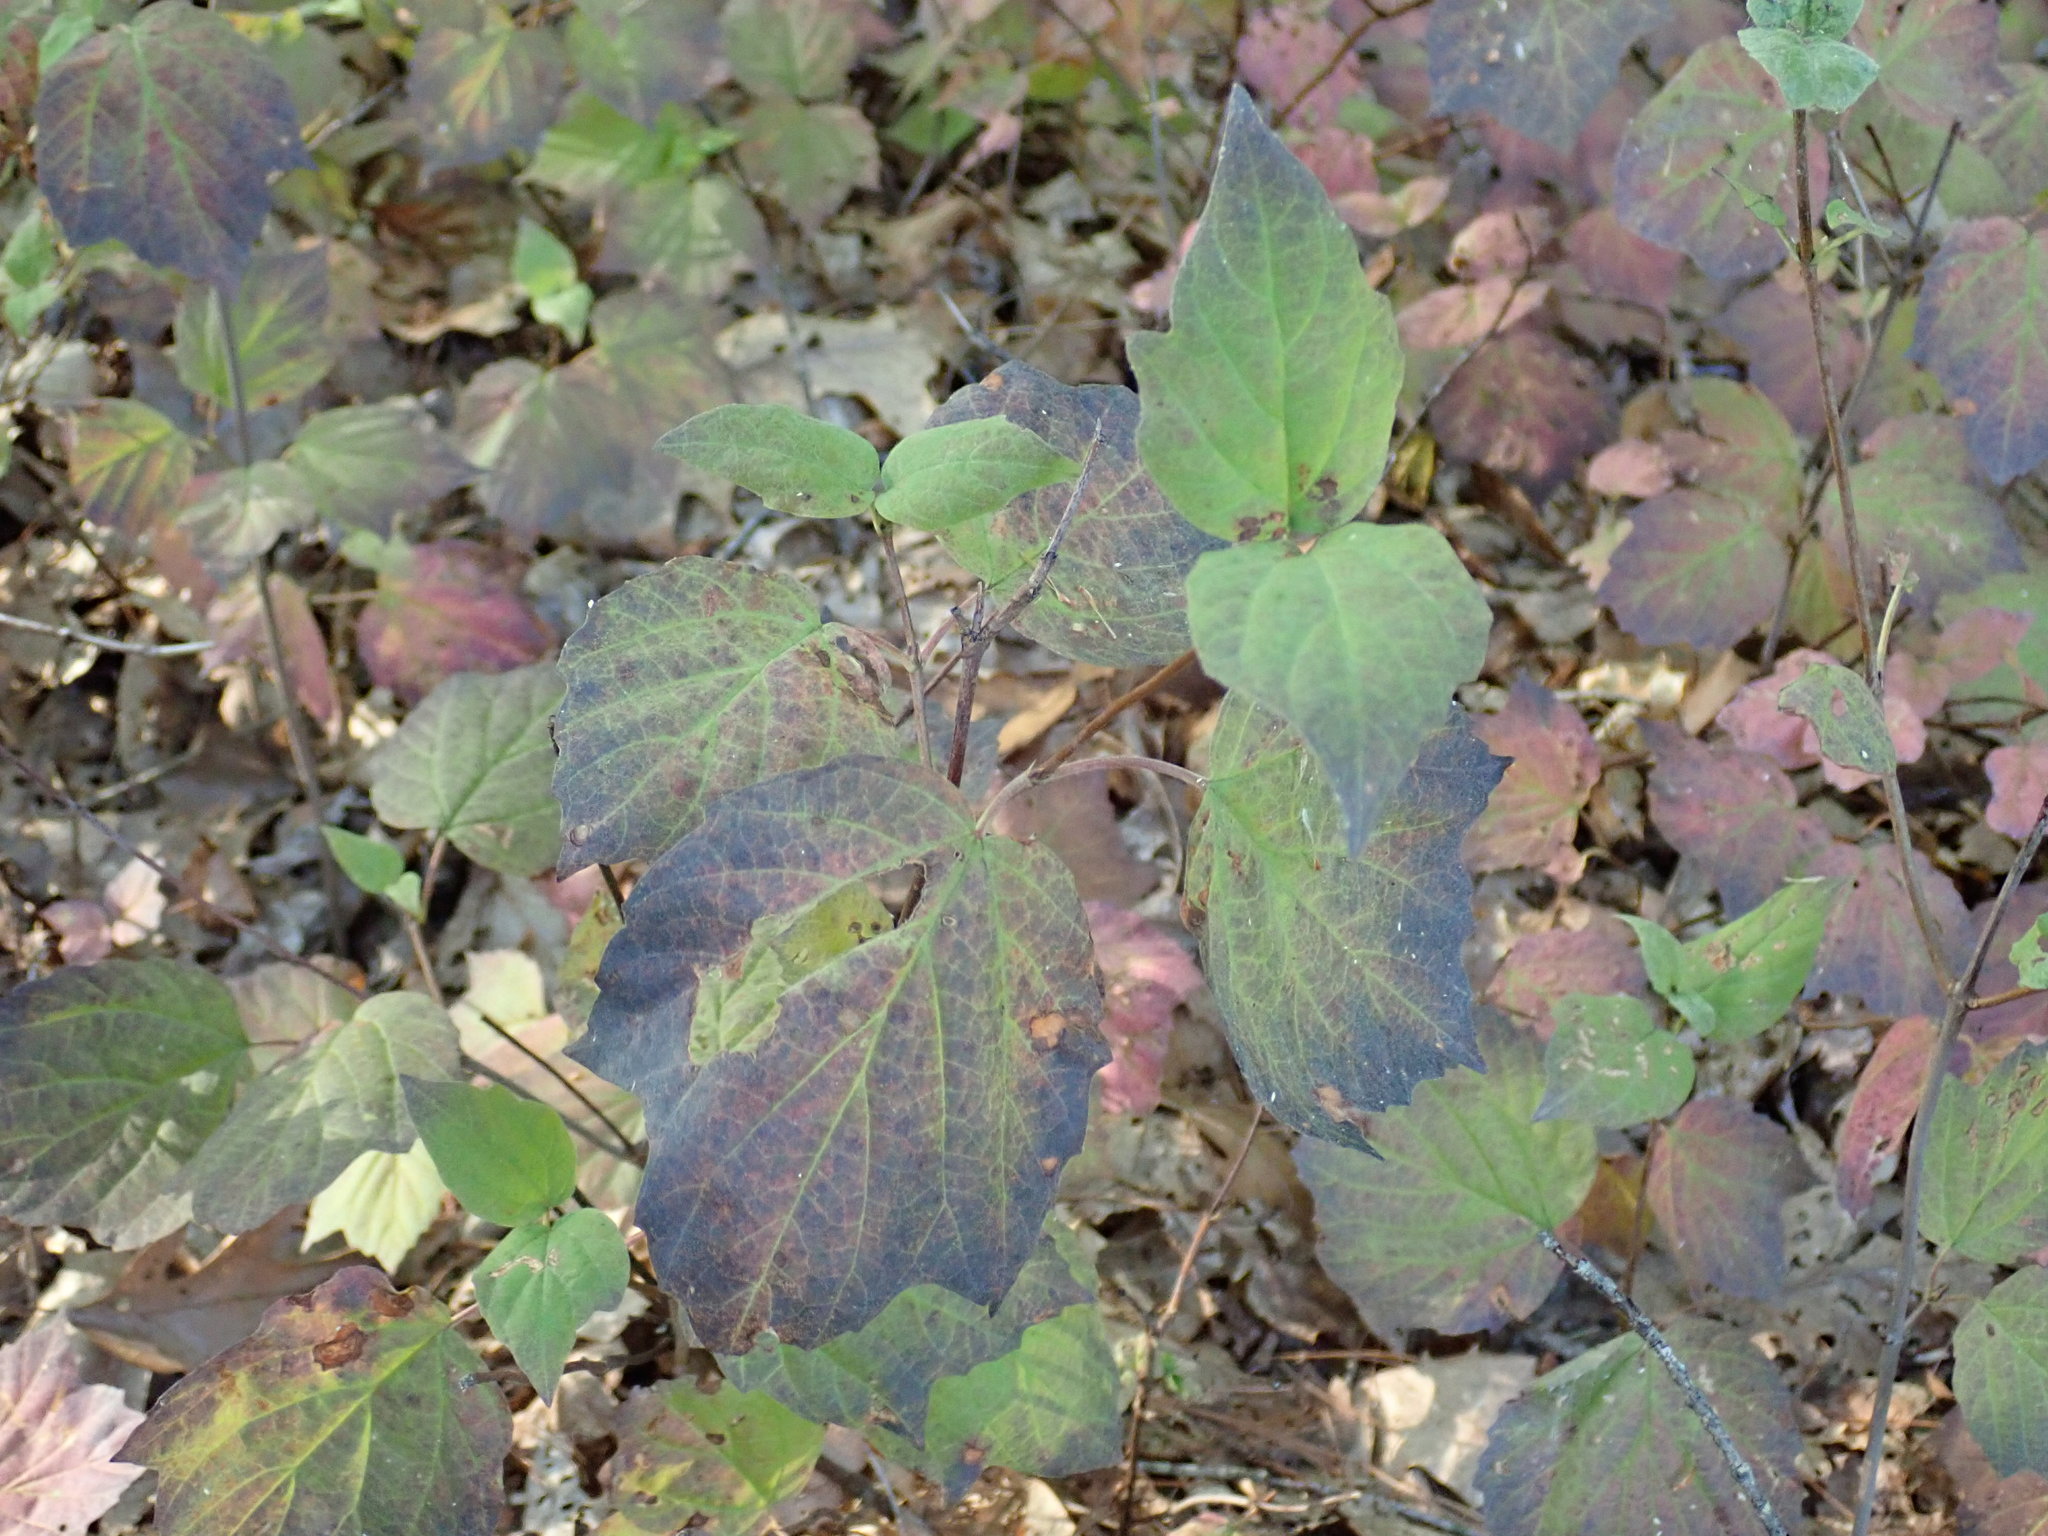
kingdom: Plantae
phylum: Tracheophyta
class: Magnoliopsida
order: Dipsacales
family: Viburnaceae
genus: Viburnum
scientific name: Viburnum acerifolium
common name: Dockmackie
